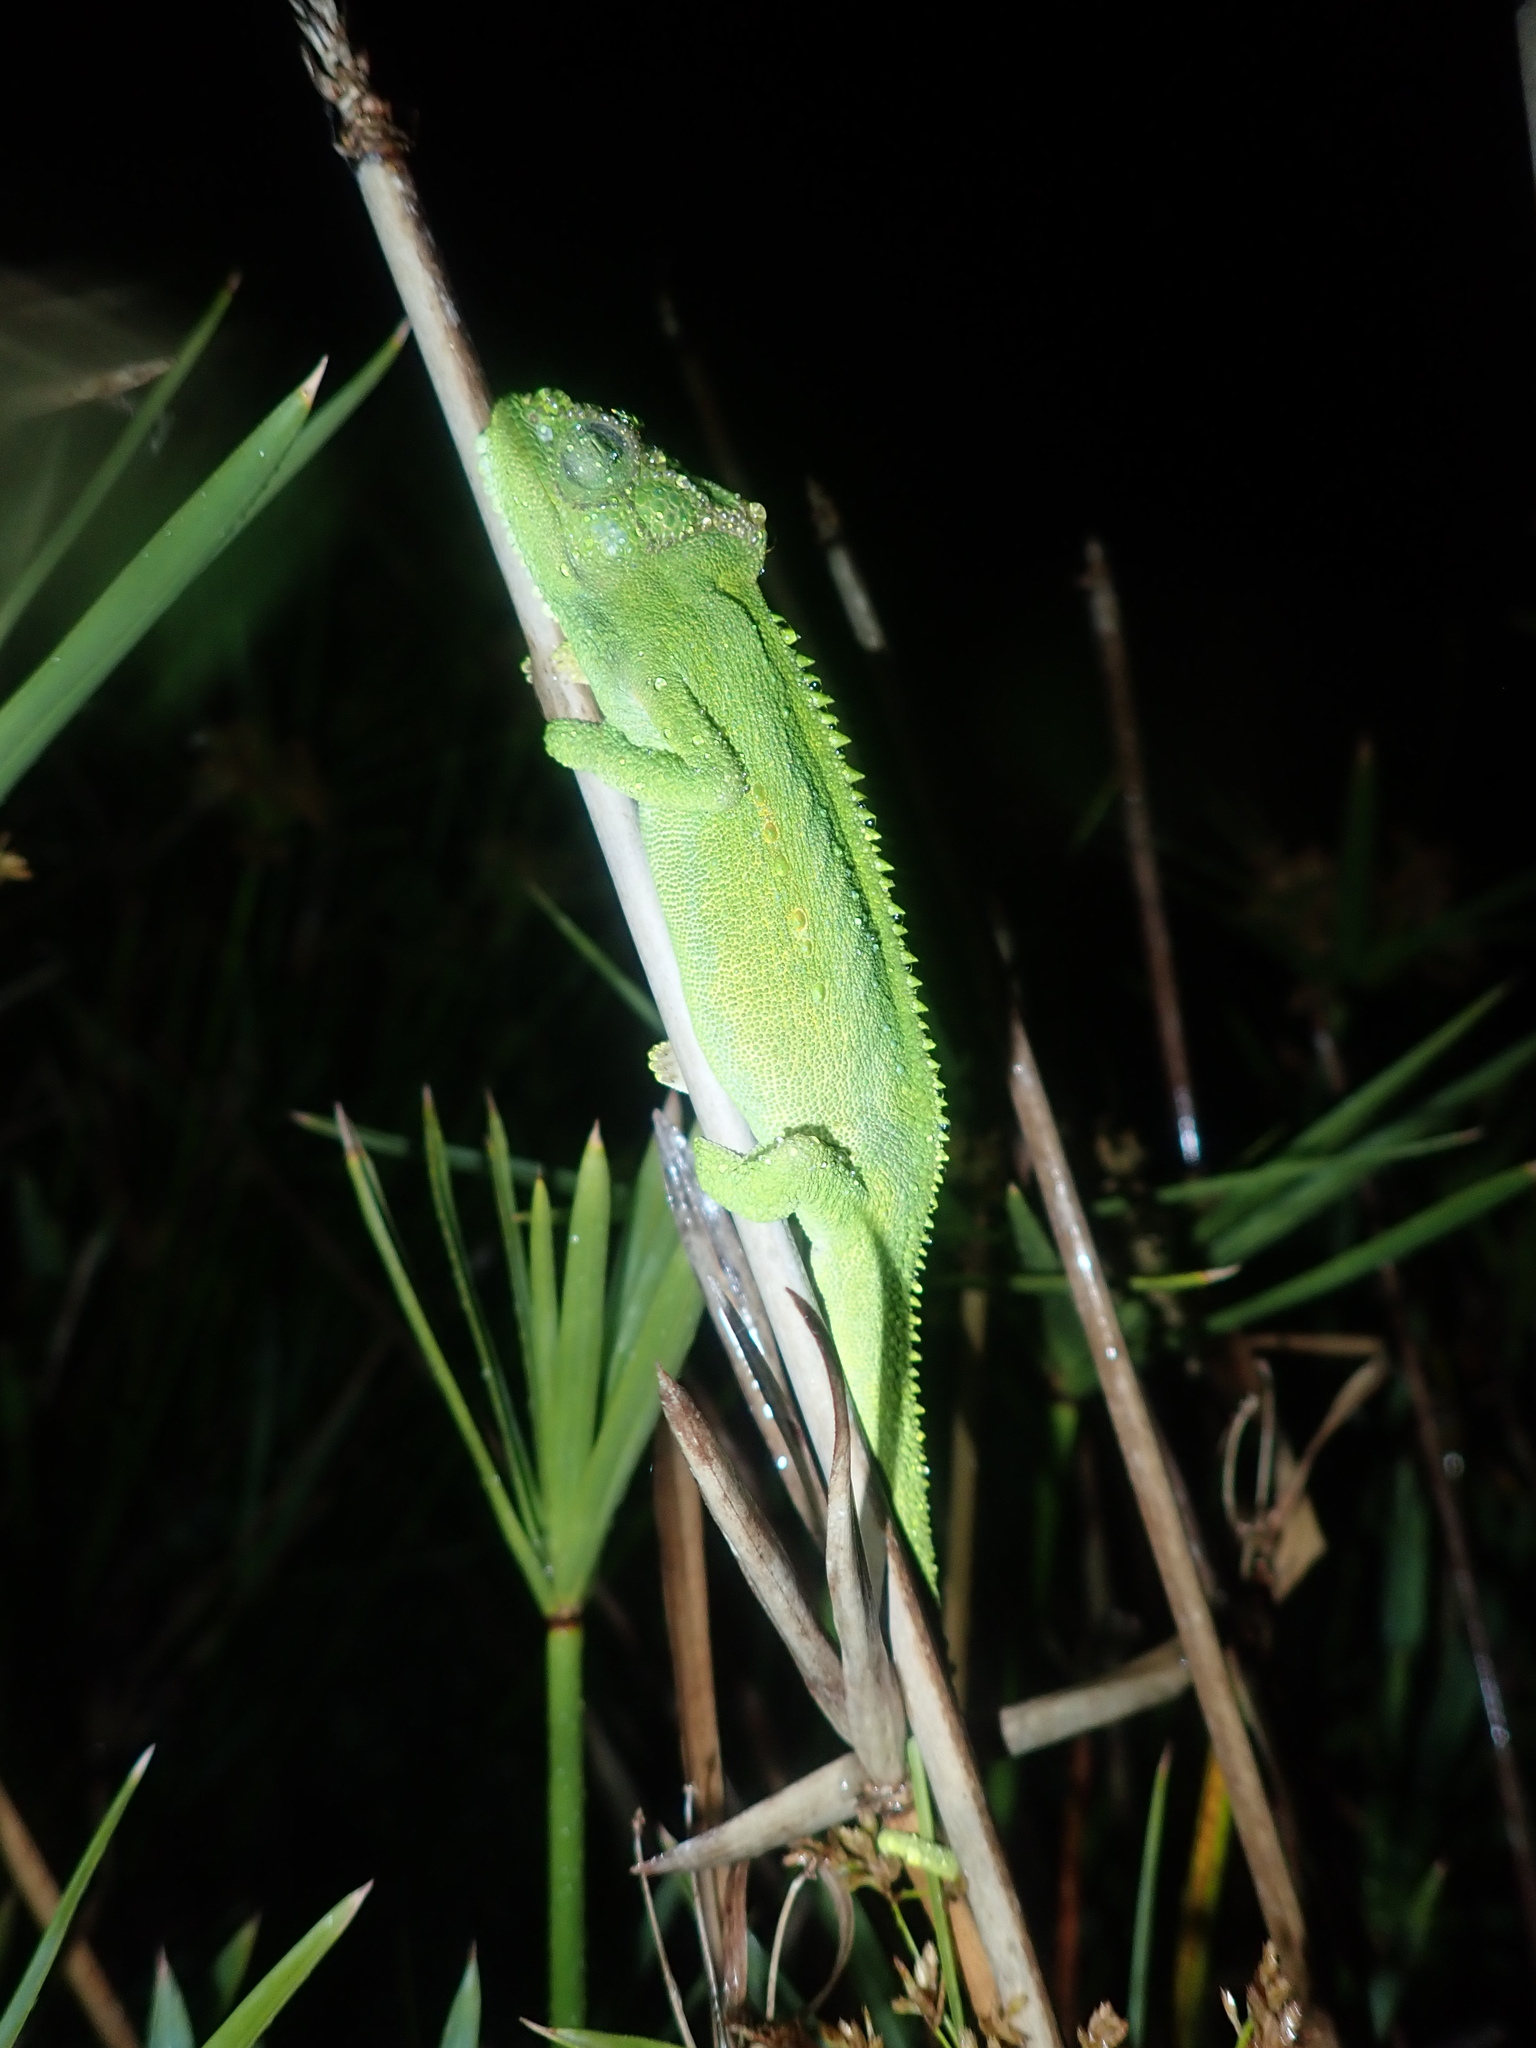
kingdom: Animalia
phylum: Chordata
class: Squamata
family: Chamaeleonidae
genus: Bradypodion
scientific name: Bradypodion pumilum
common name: Cape dwarf chameleon
